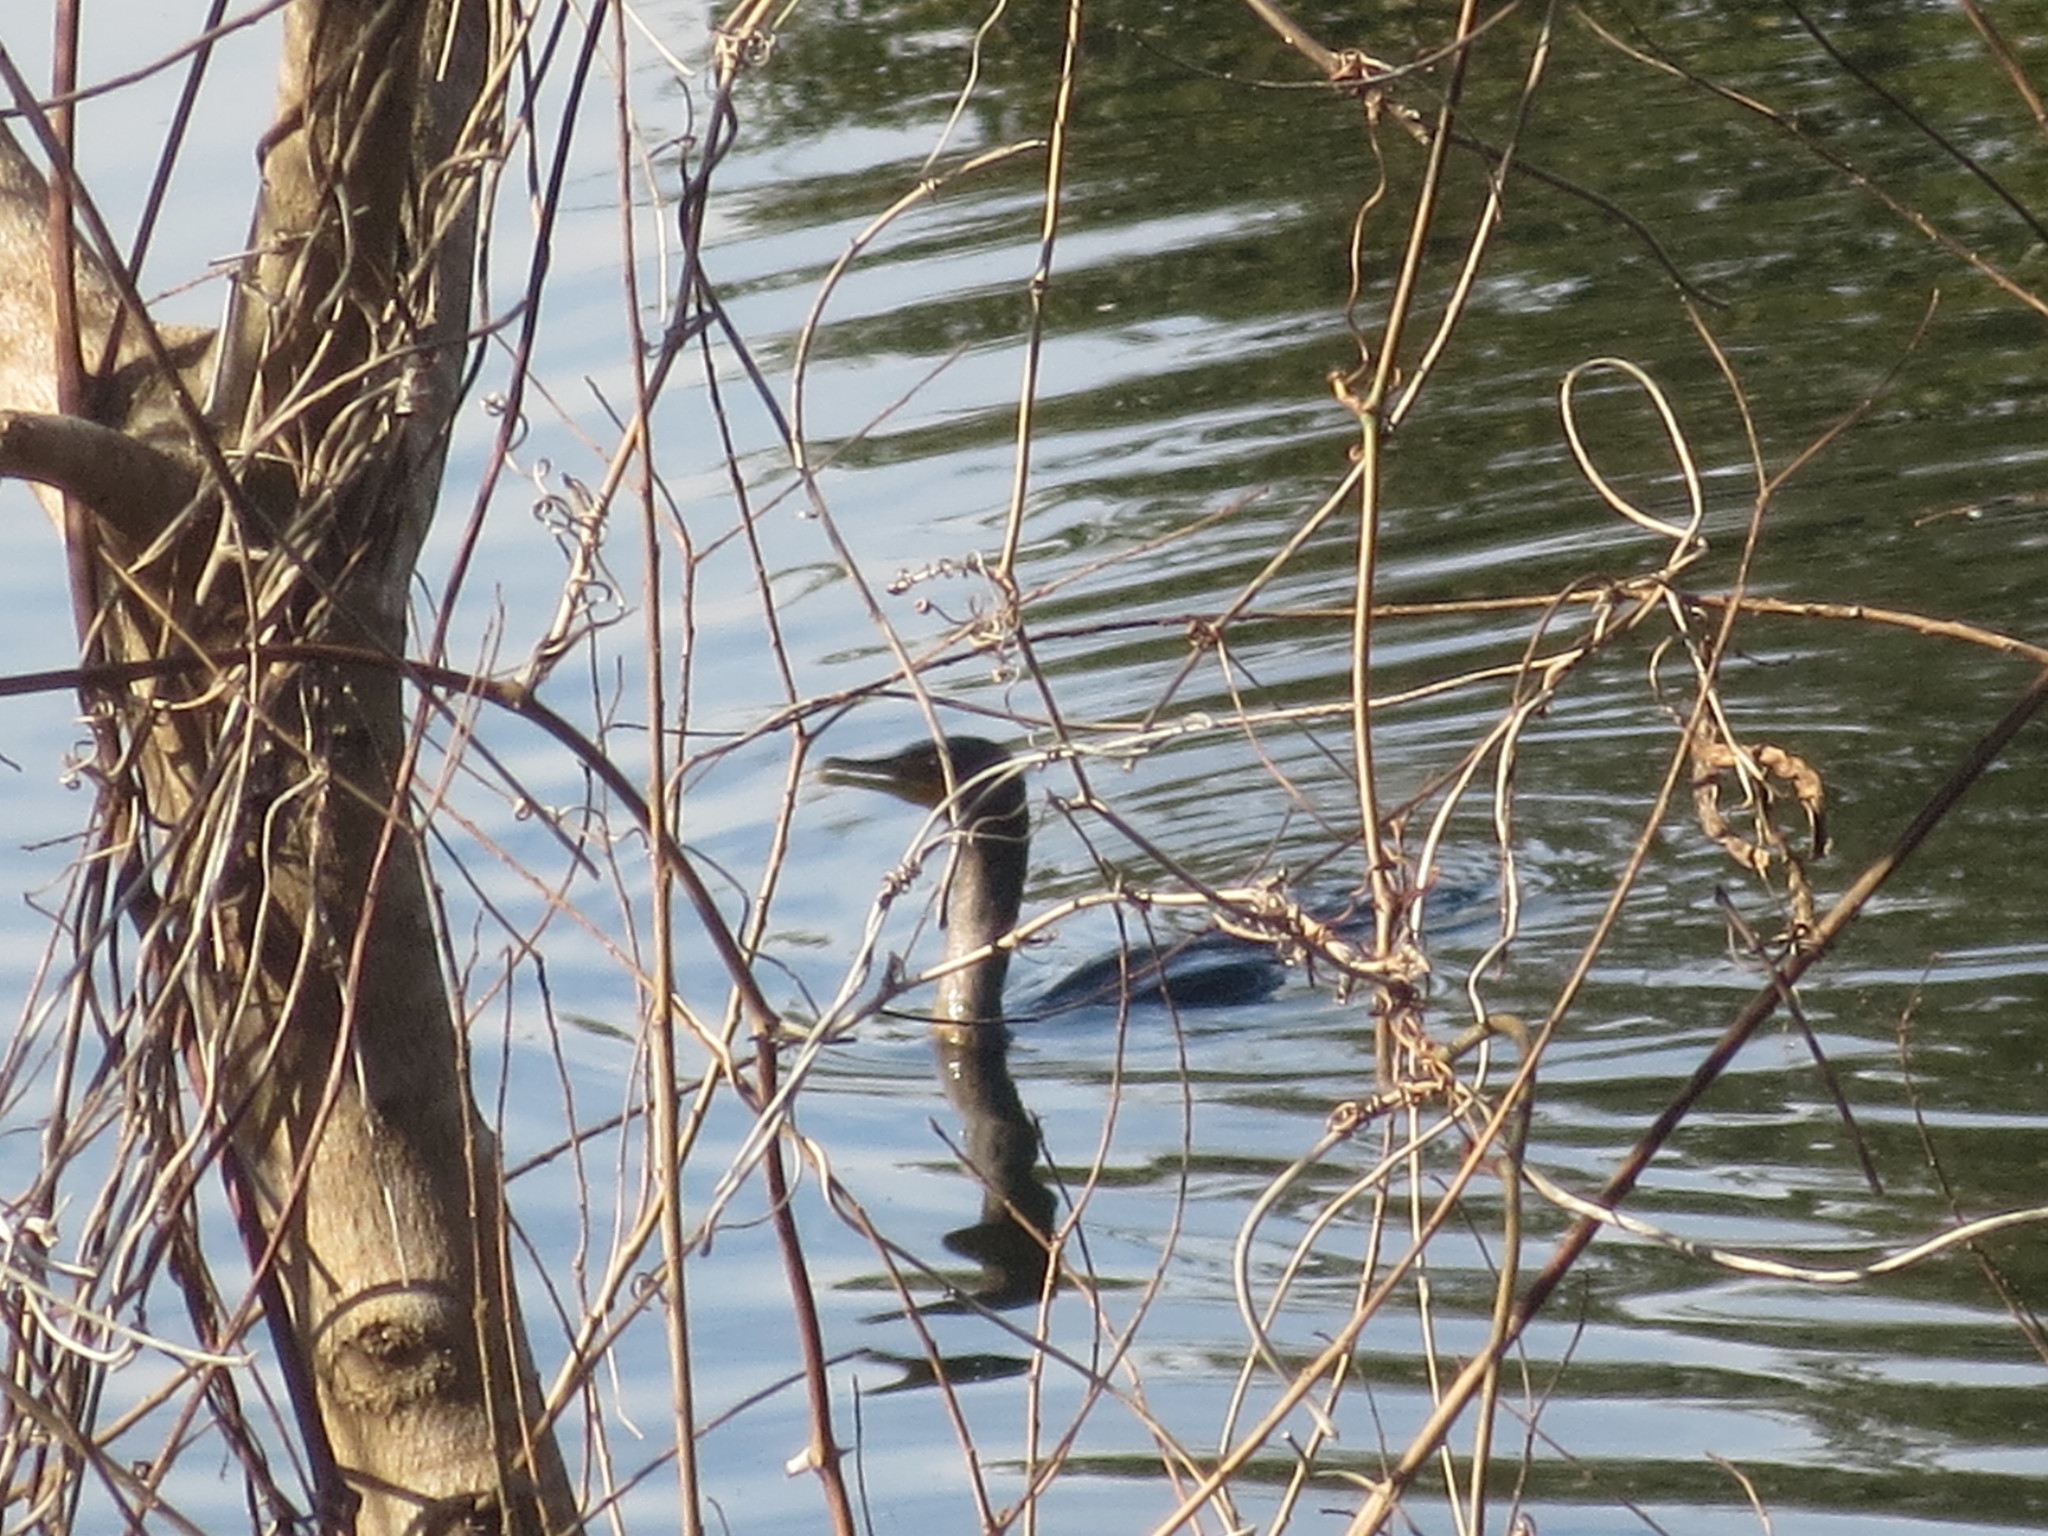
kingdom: Animalia
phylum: Chordata
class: Aves
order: Suliformes
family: Phalacrocoracidae
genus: Phalacrocorax
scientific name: Phalacrocorax auritus
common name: Double-crested cormorant
